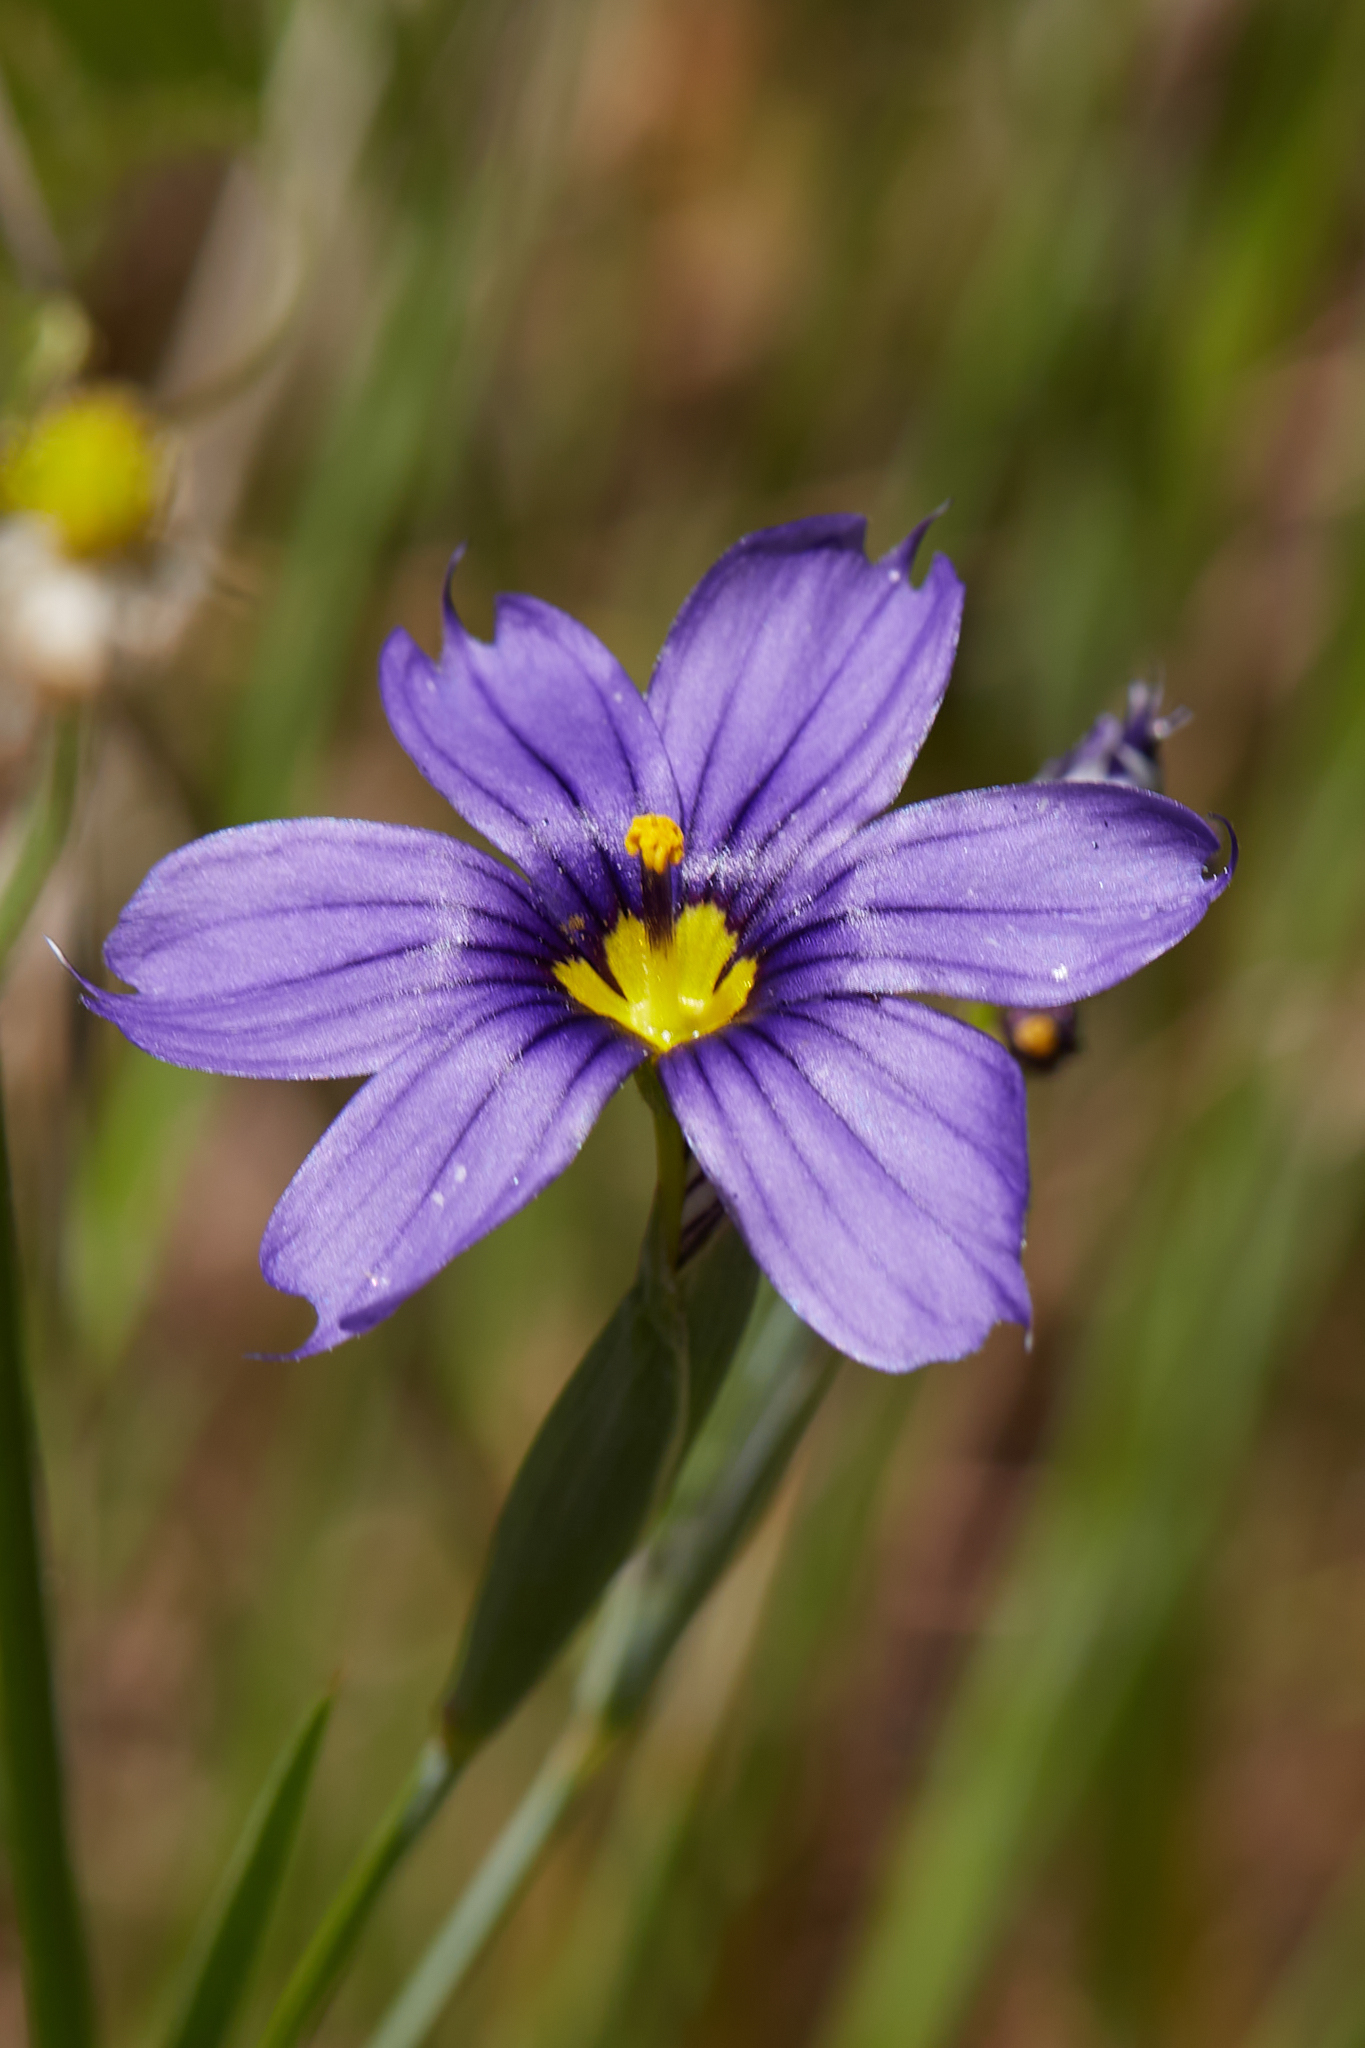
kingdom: Plantae
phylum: Tracheophyta
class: Liliopsida
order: Asparagales
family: Iridaceae
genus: Sisyrinchium
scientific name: Sisyrinchium bellum
